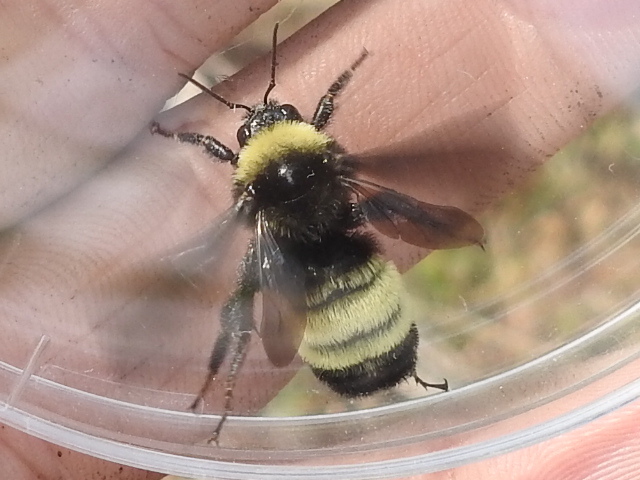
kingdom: Animalia
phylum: Arthropoda
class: Insecta
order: Hymenoptera
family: Apidae
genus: Bombus
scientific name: Bombus pensylvanicus
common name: Bumble bee
